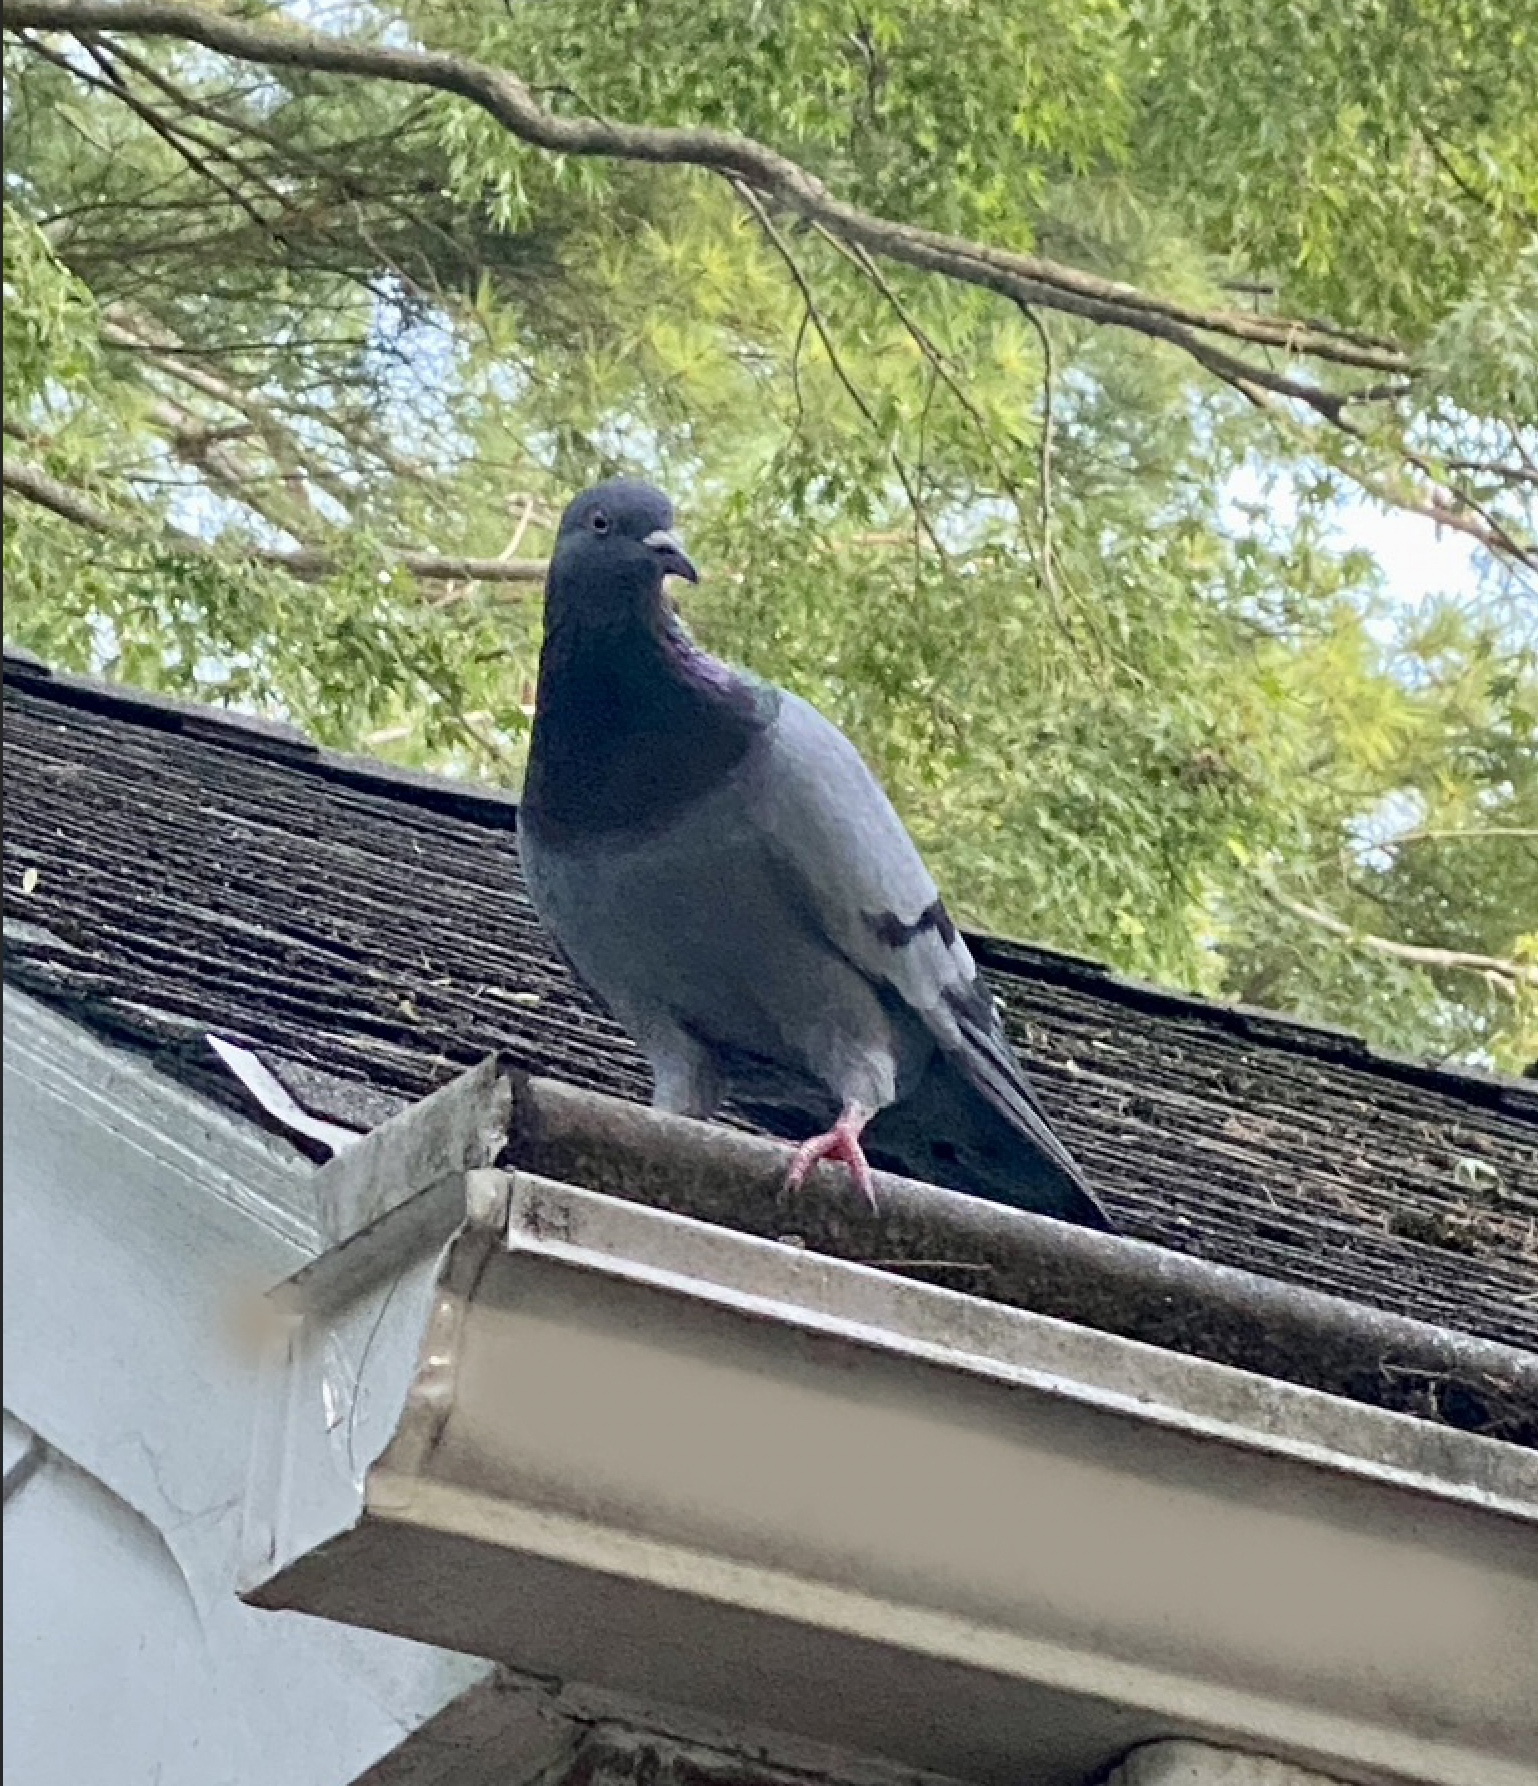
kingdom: Animalia
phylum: Chordata
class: Aves
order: Columbiformes
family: Columbidae
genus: Columba
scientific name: Columba livia
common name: Rock pigeon
